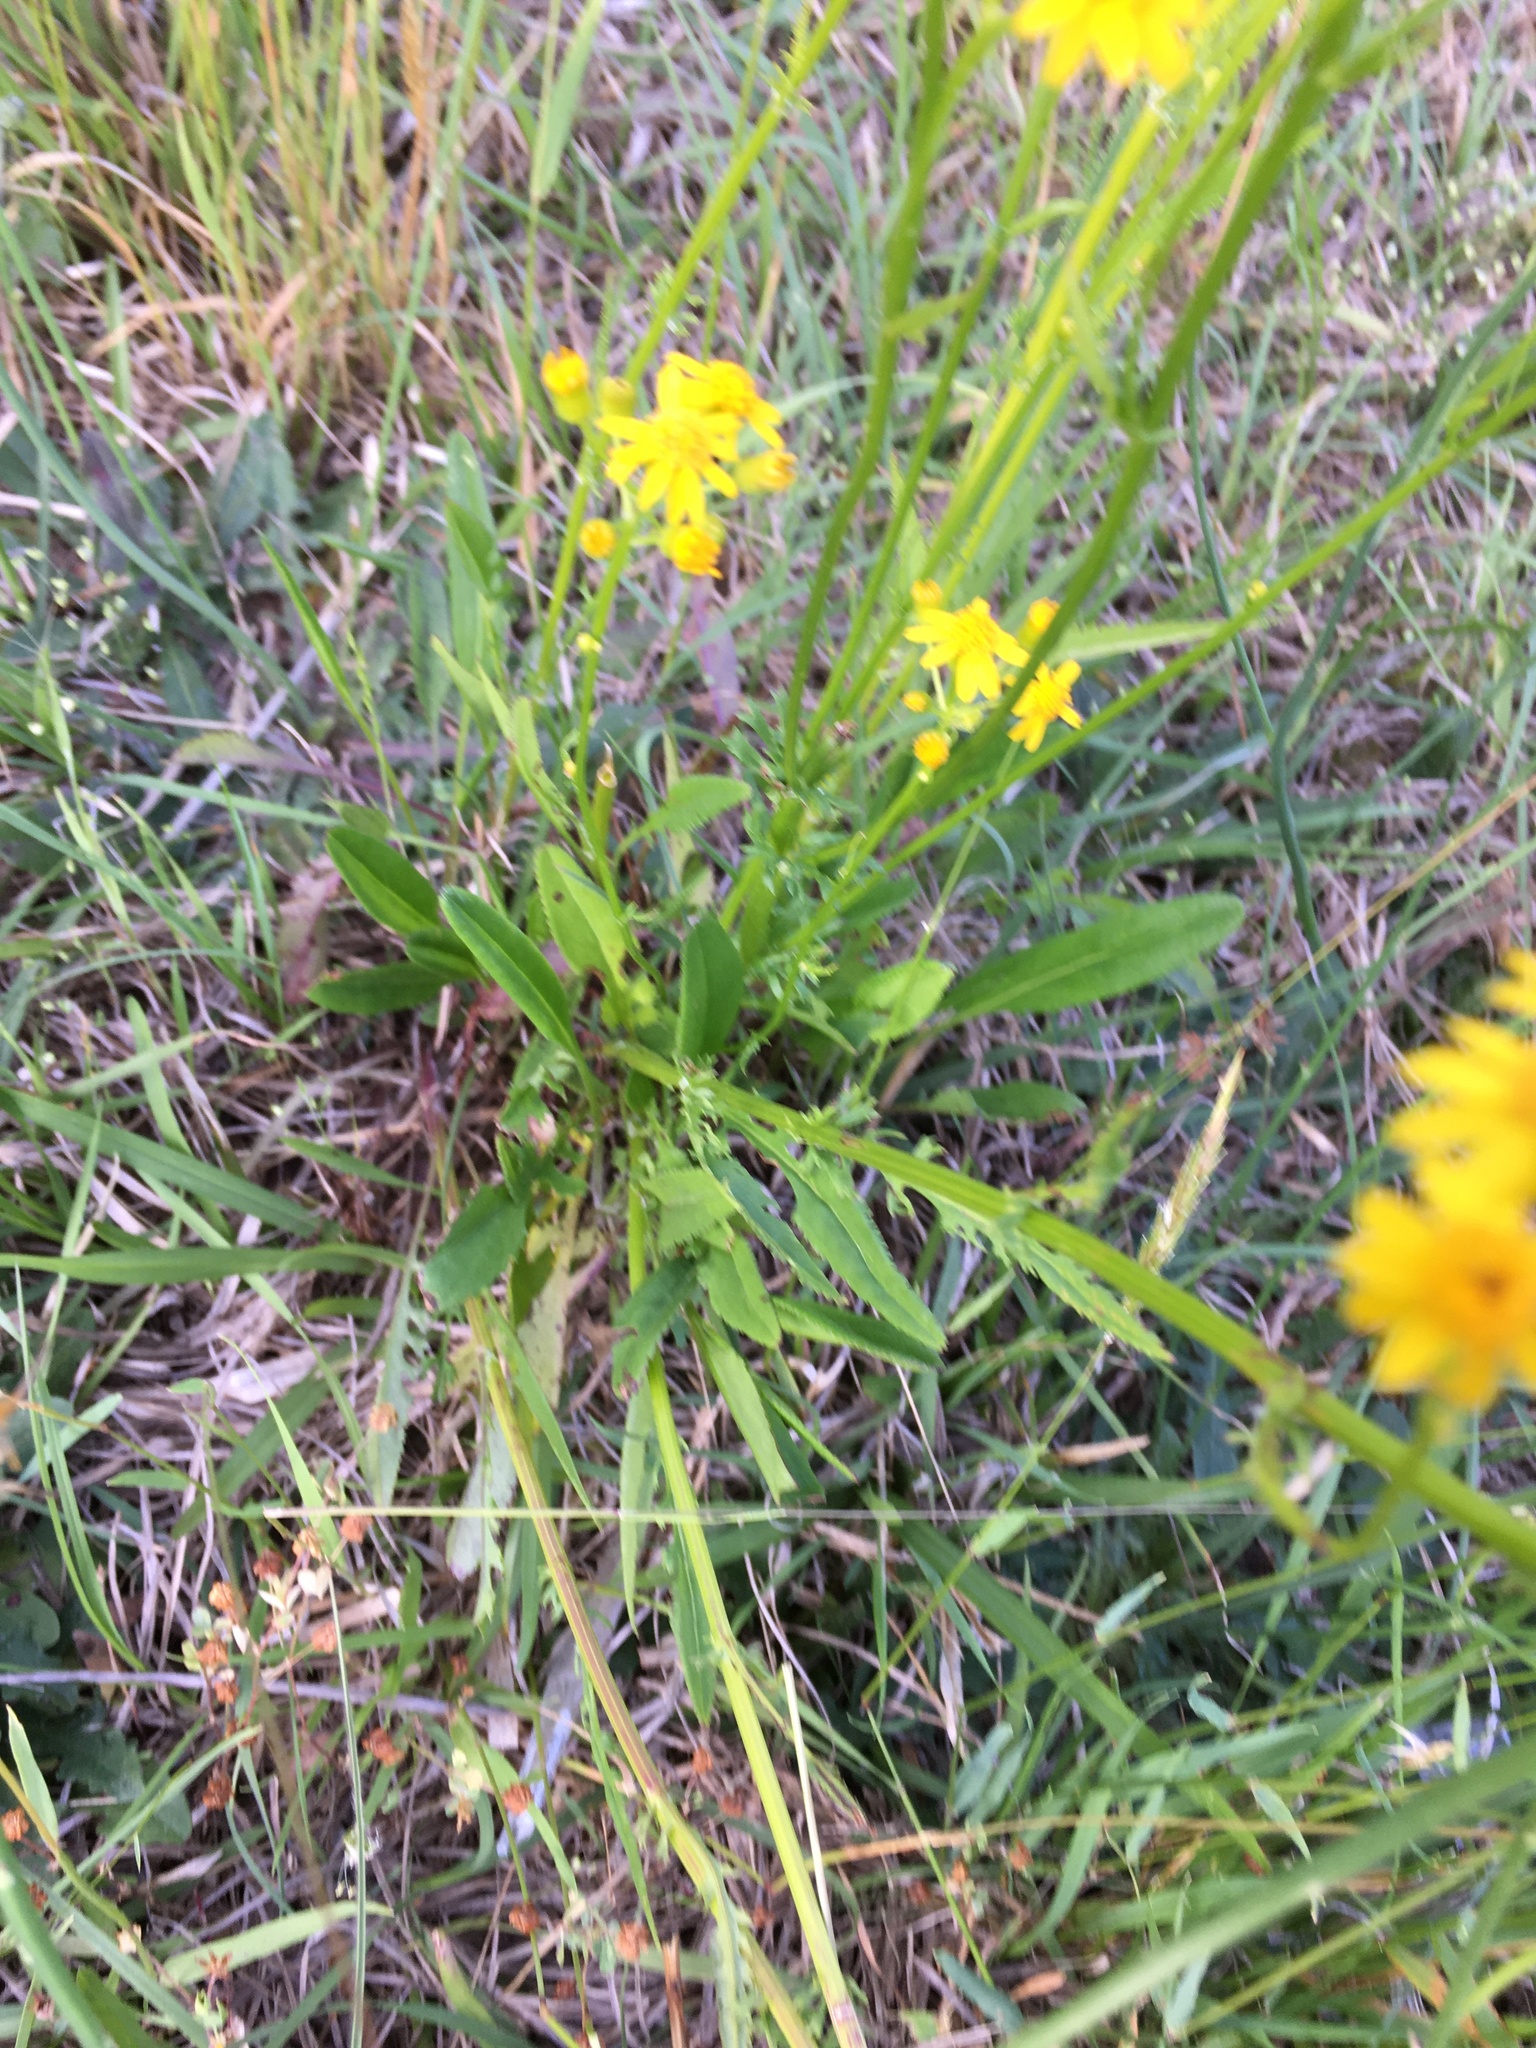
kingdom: Plantae
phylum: Tracheophyta
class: Magnoliopsida
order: Asterales
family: Asteraceae
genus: Packera
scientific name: Packera anonyma
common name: Small ragwort
